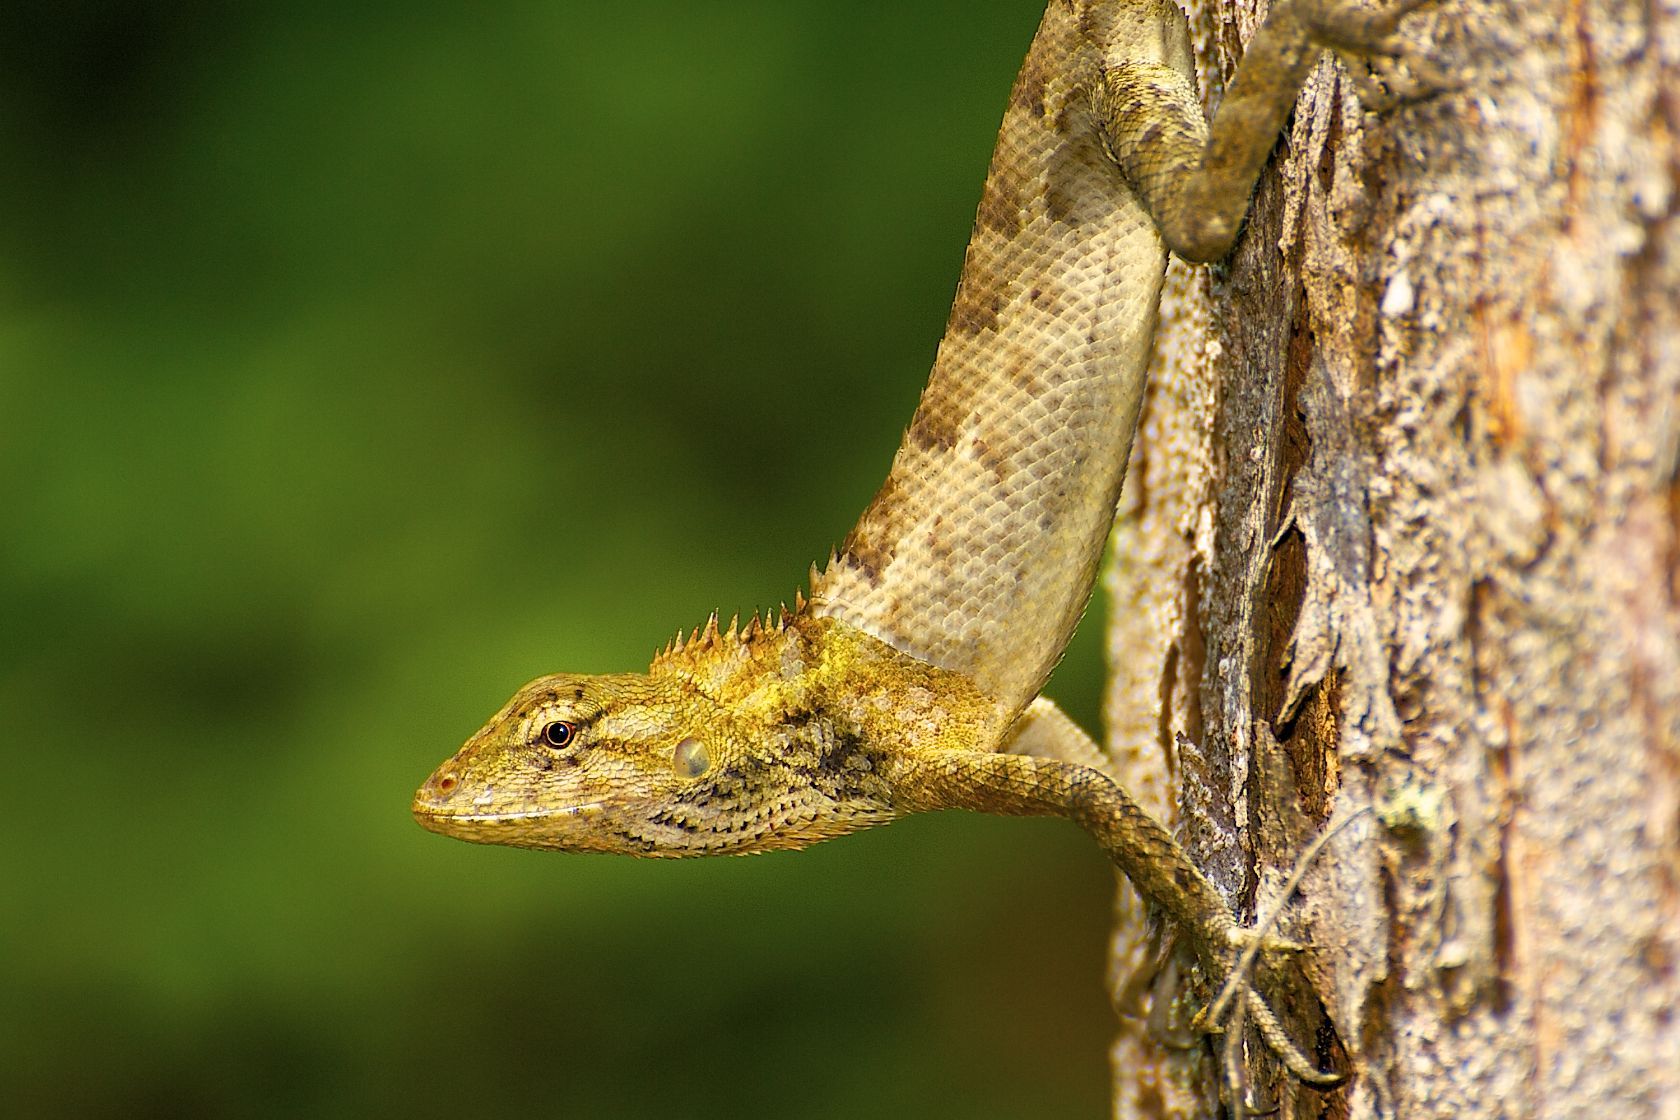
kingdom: Animalia
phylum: Chordata
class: Squamata
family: Agamidae
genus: Calotes
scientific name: Calotes versicolor
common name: Oriental garden lizard
